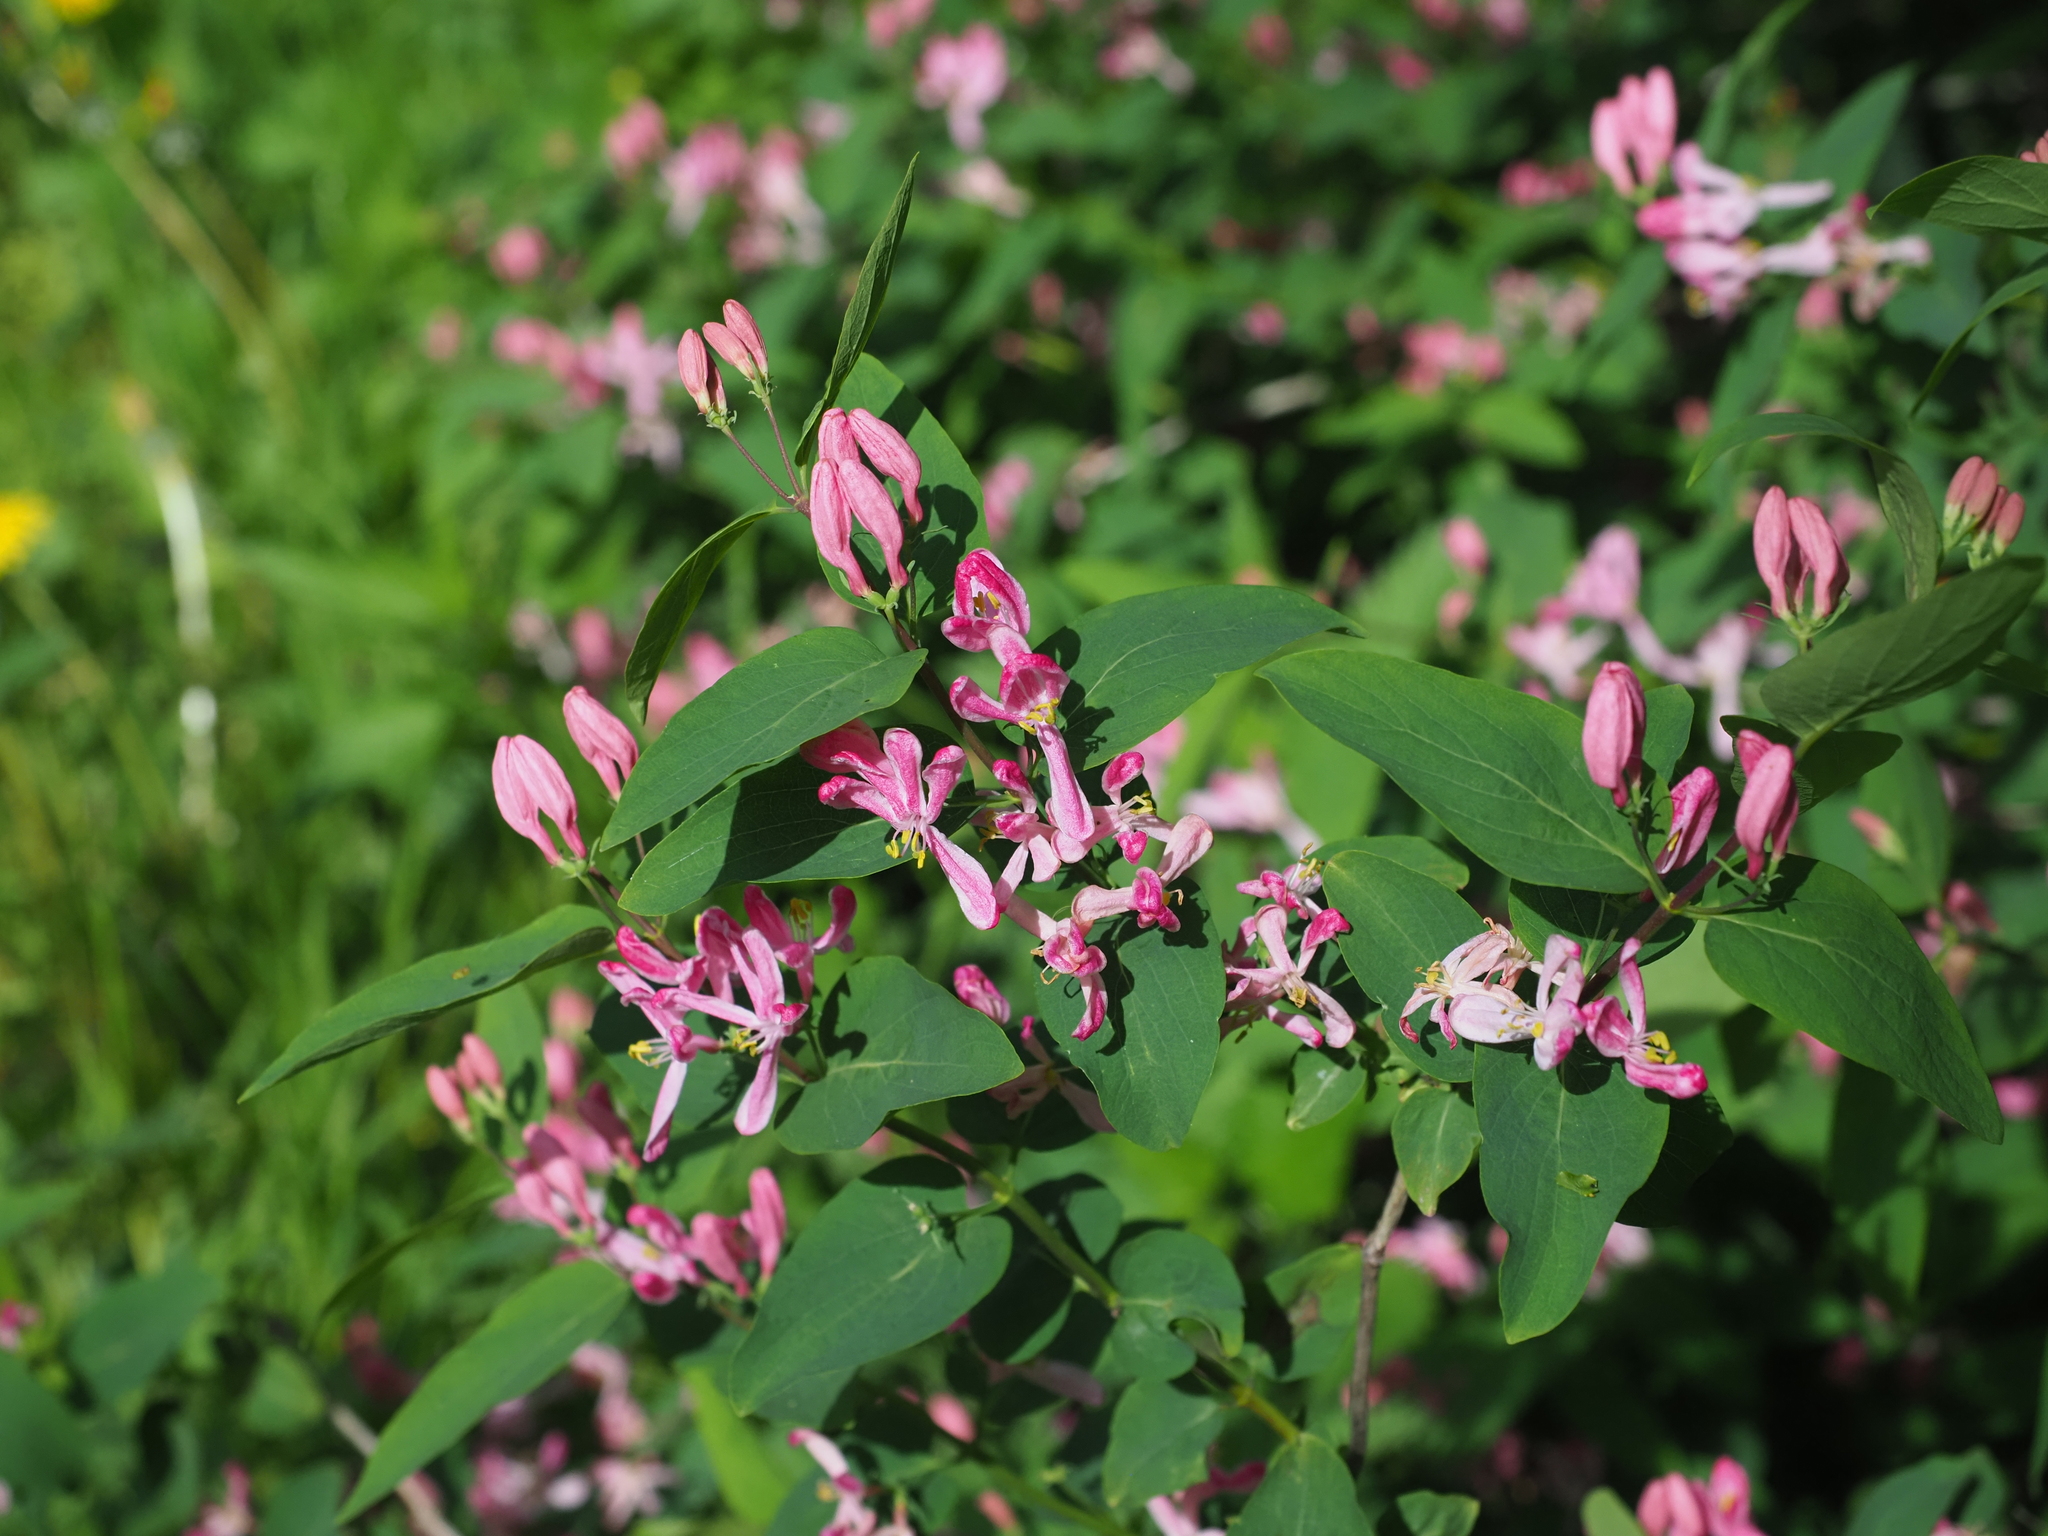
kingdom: Plantae
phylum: Tracheophyta
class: Magnoliopsida
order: Dipsacales
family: Caprifoliaceae
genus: Lonicera
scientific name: Lonicera tatarica
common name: Tatarian honeysuckle
